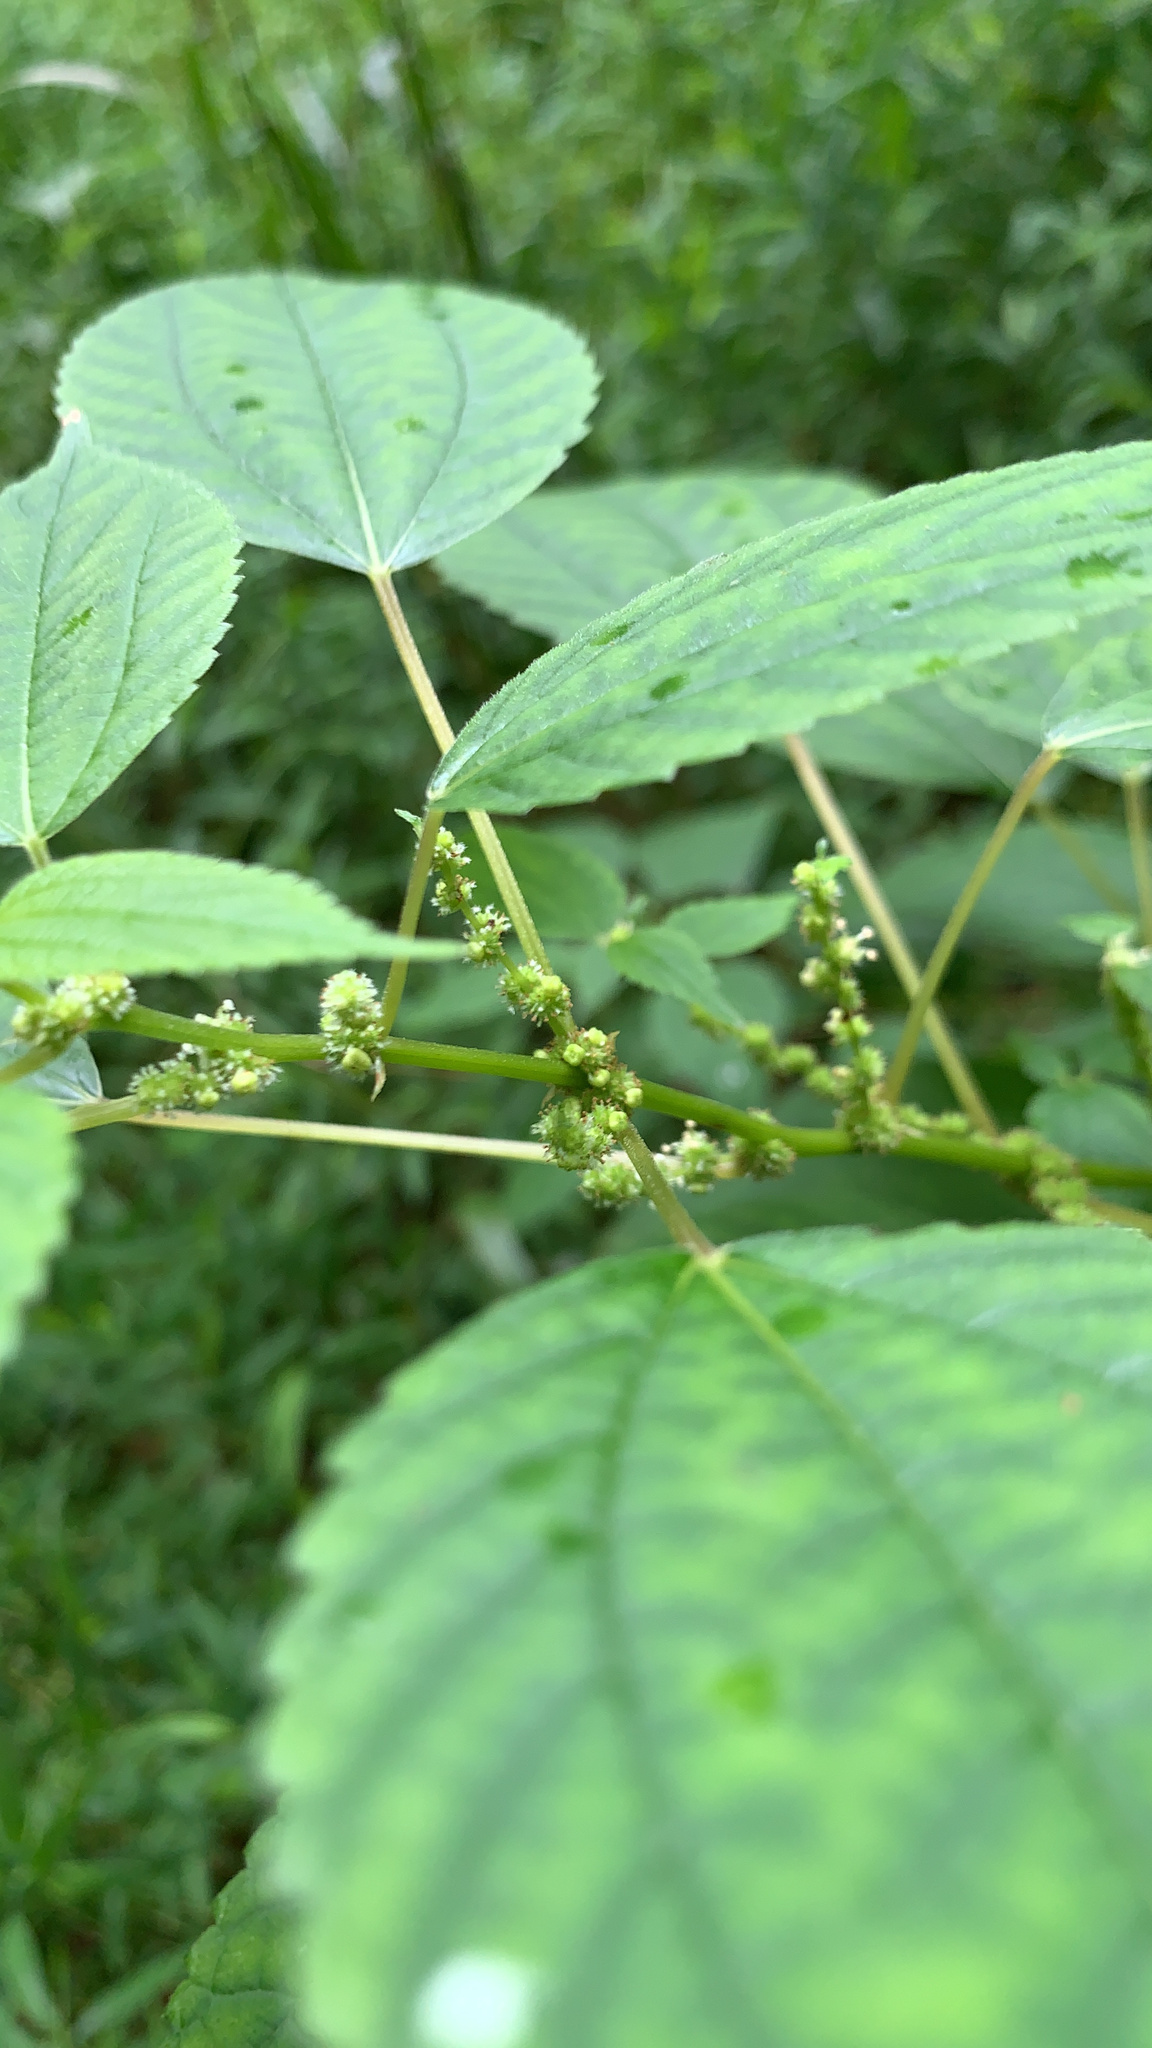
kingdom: Plantae
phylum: Tracheophyta
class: Magnoliopsida
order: Rosales
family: Urticaceae
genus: Boehmeria
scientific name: Boehmeria cylindrica
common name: Bog-hemp
